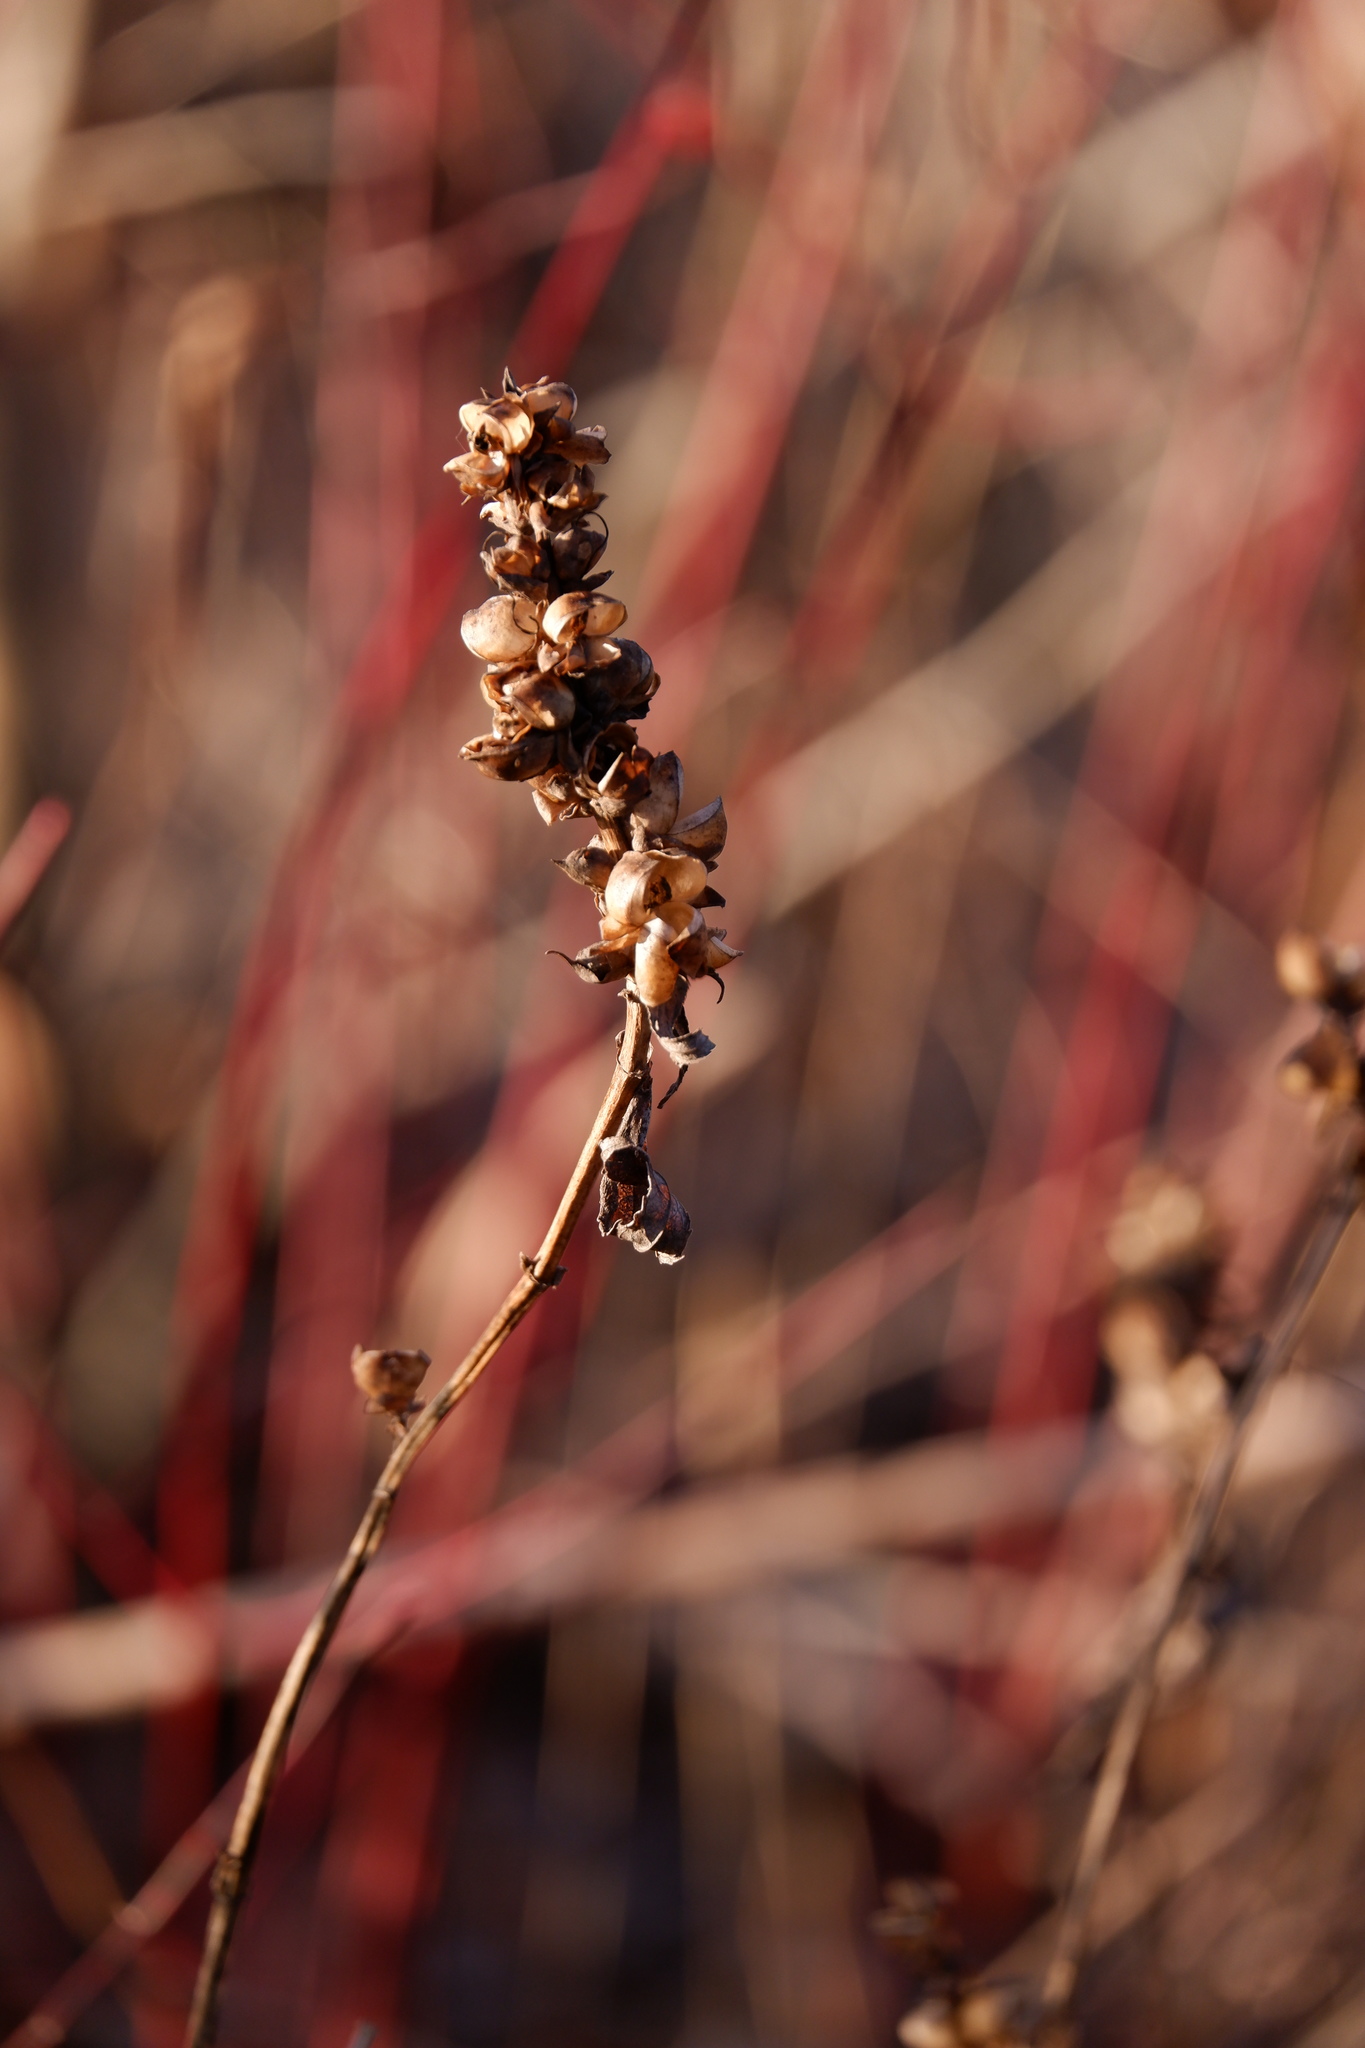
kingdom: Plantae
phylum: Tracheophyta
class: Magnoliopsida
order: Lamiales
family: Plantaginaceae
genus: Chelone
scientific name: Chelone glabra
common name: Snakehead
